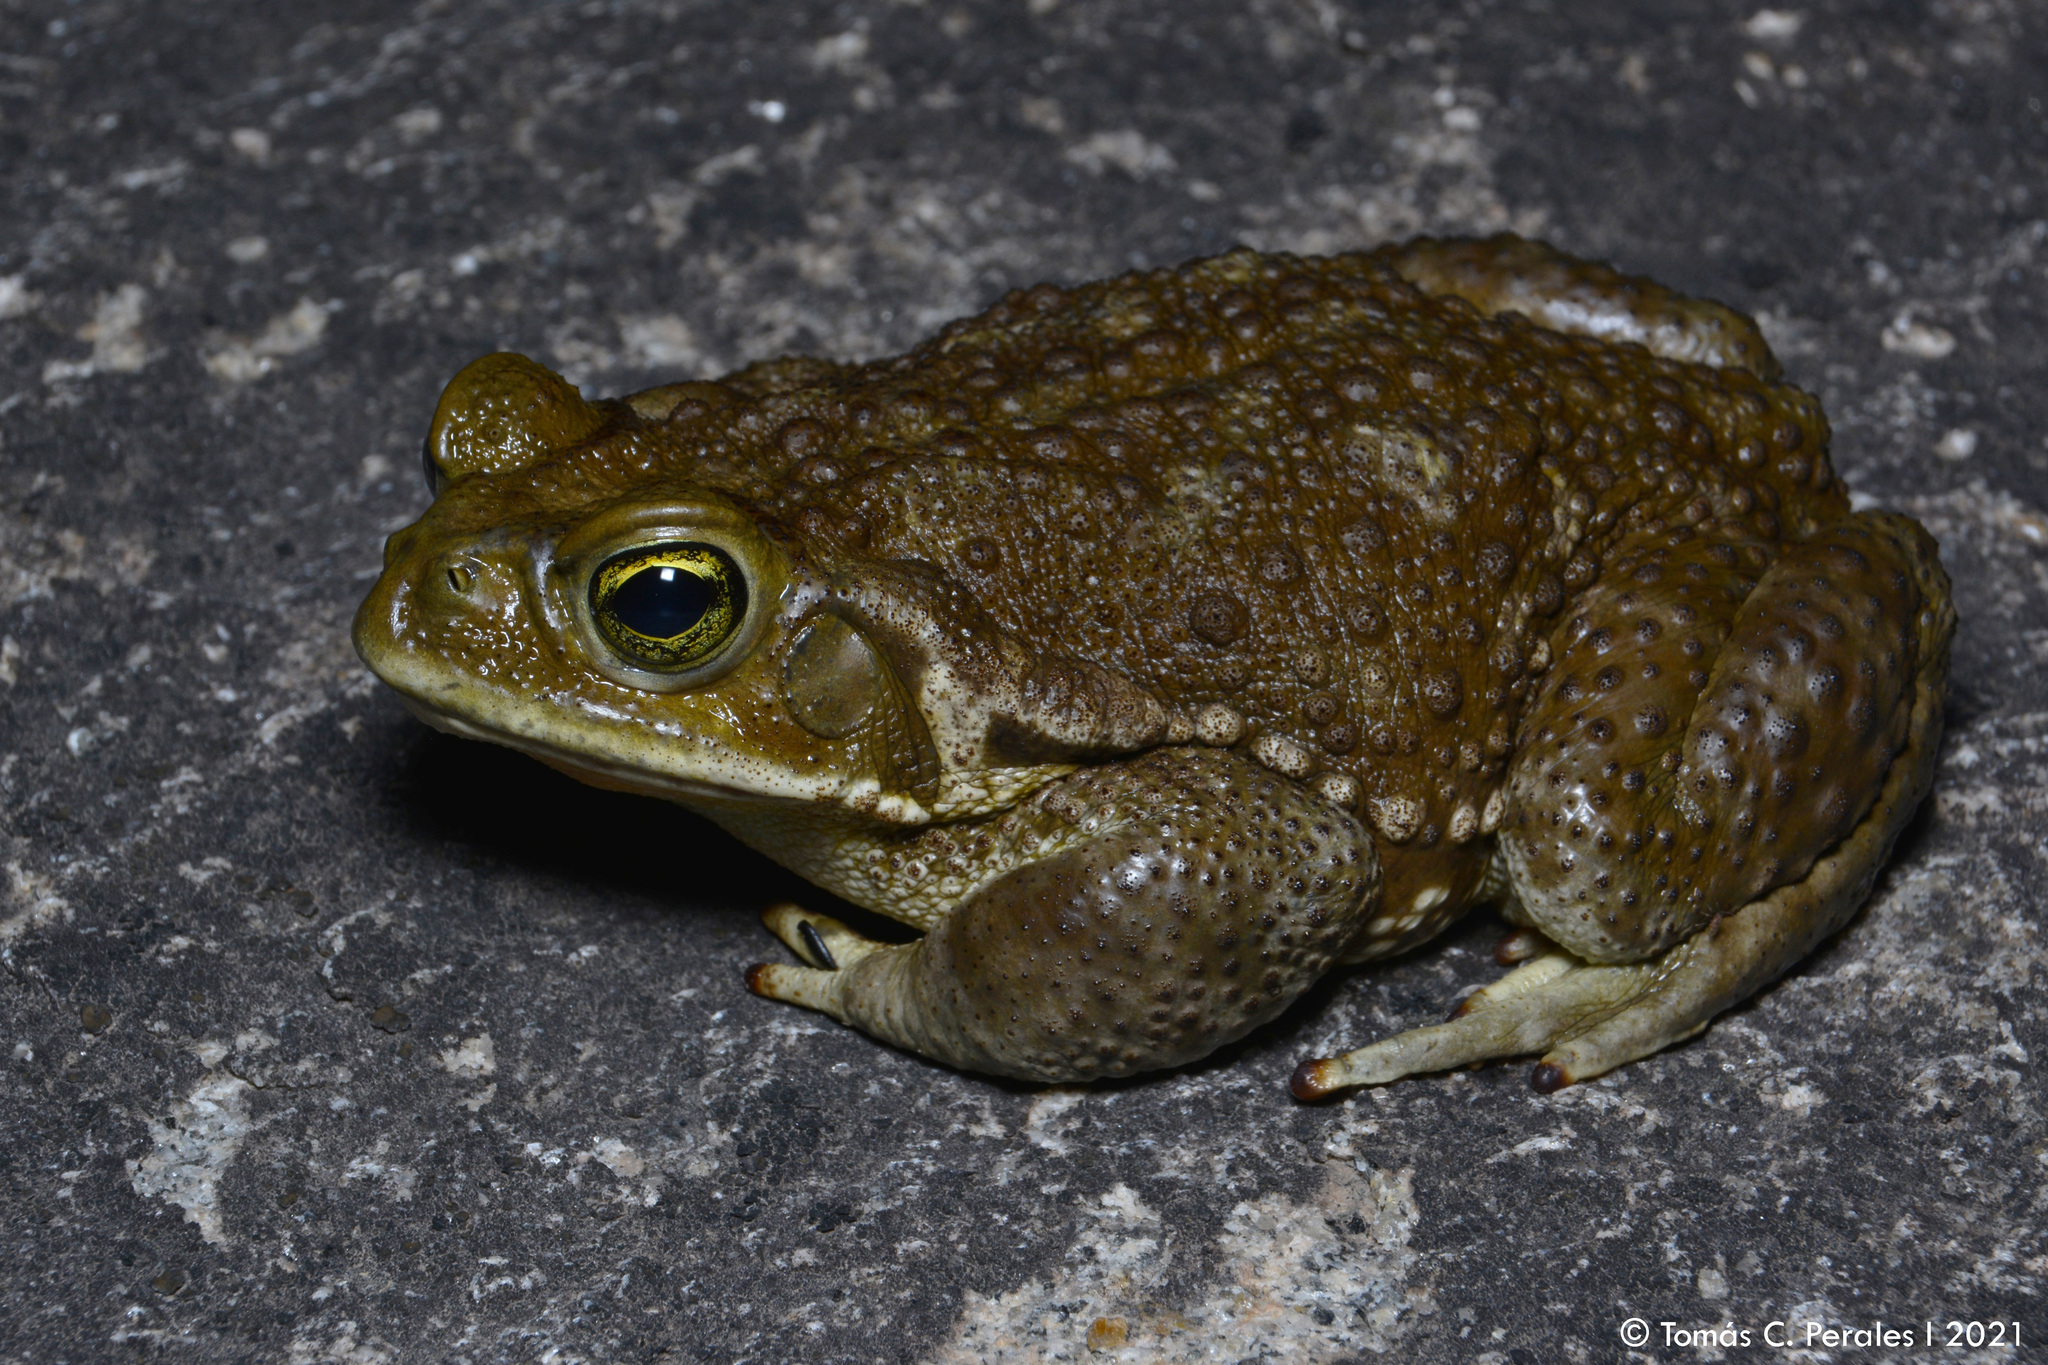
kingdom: Animalia
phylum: Chordata
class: Amphibia
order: Anura
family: Bufonidae
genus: Rhinella
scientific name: Rhinella arenarum
